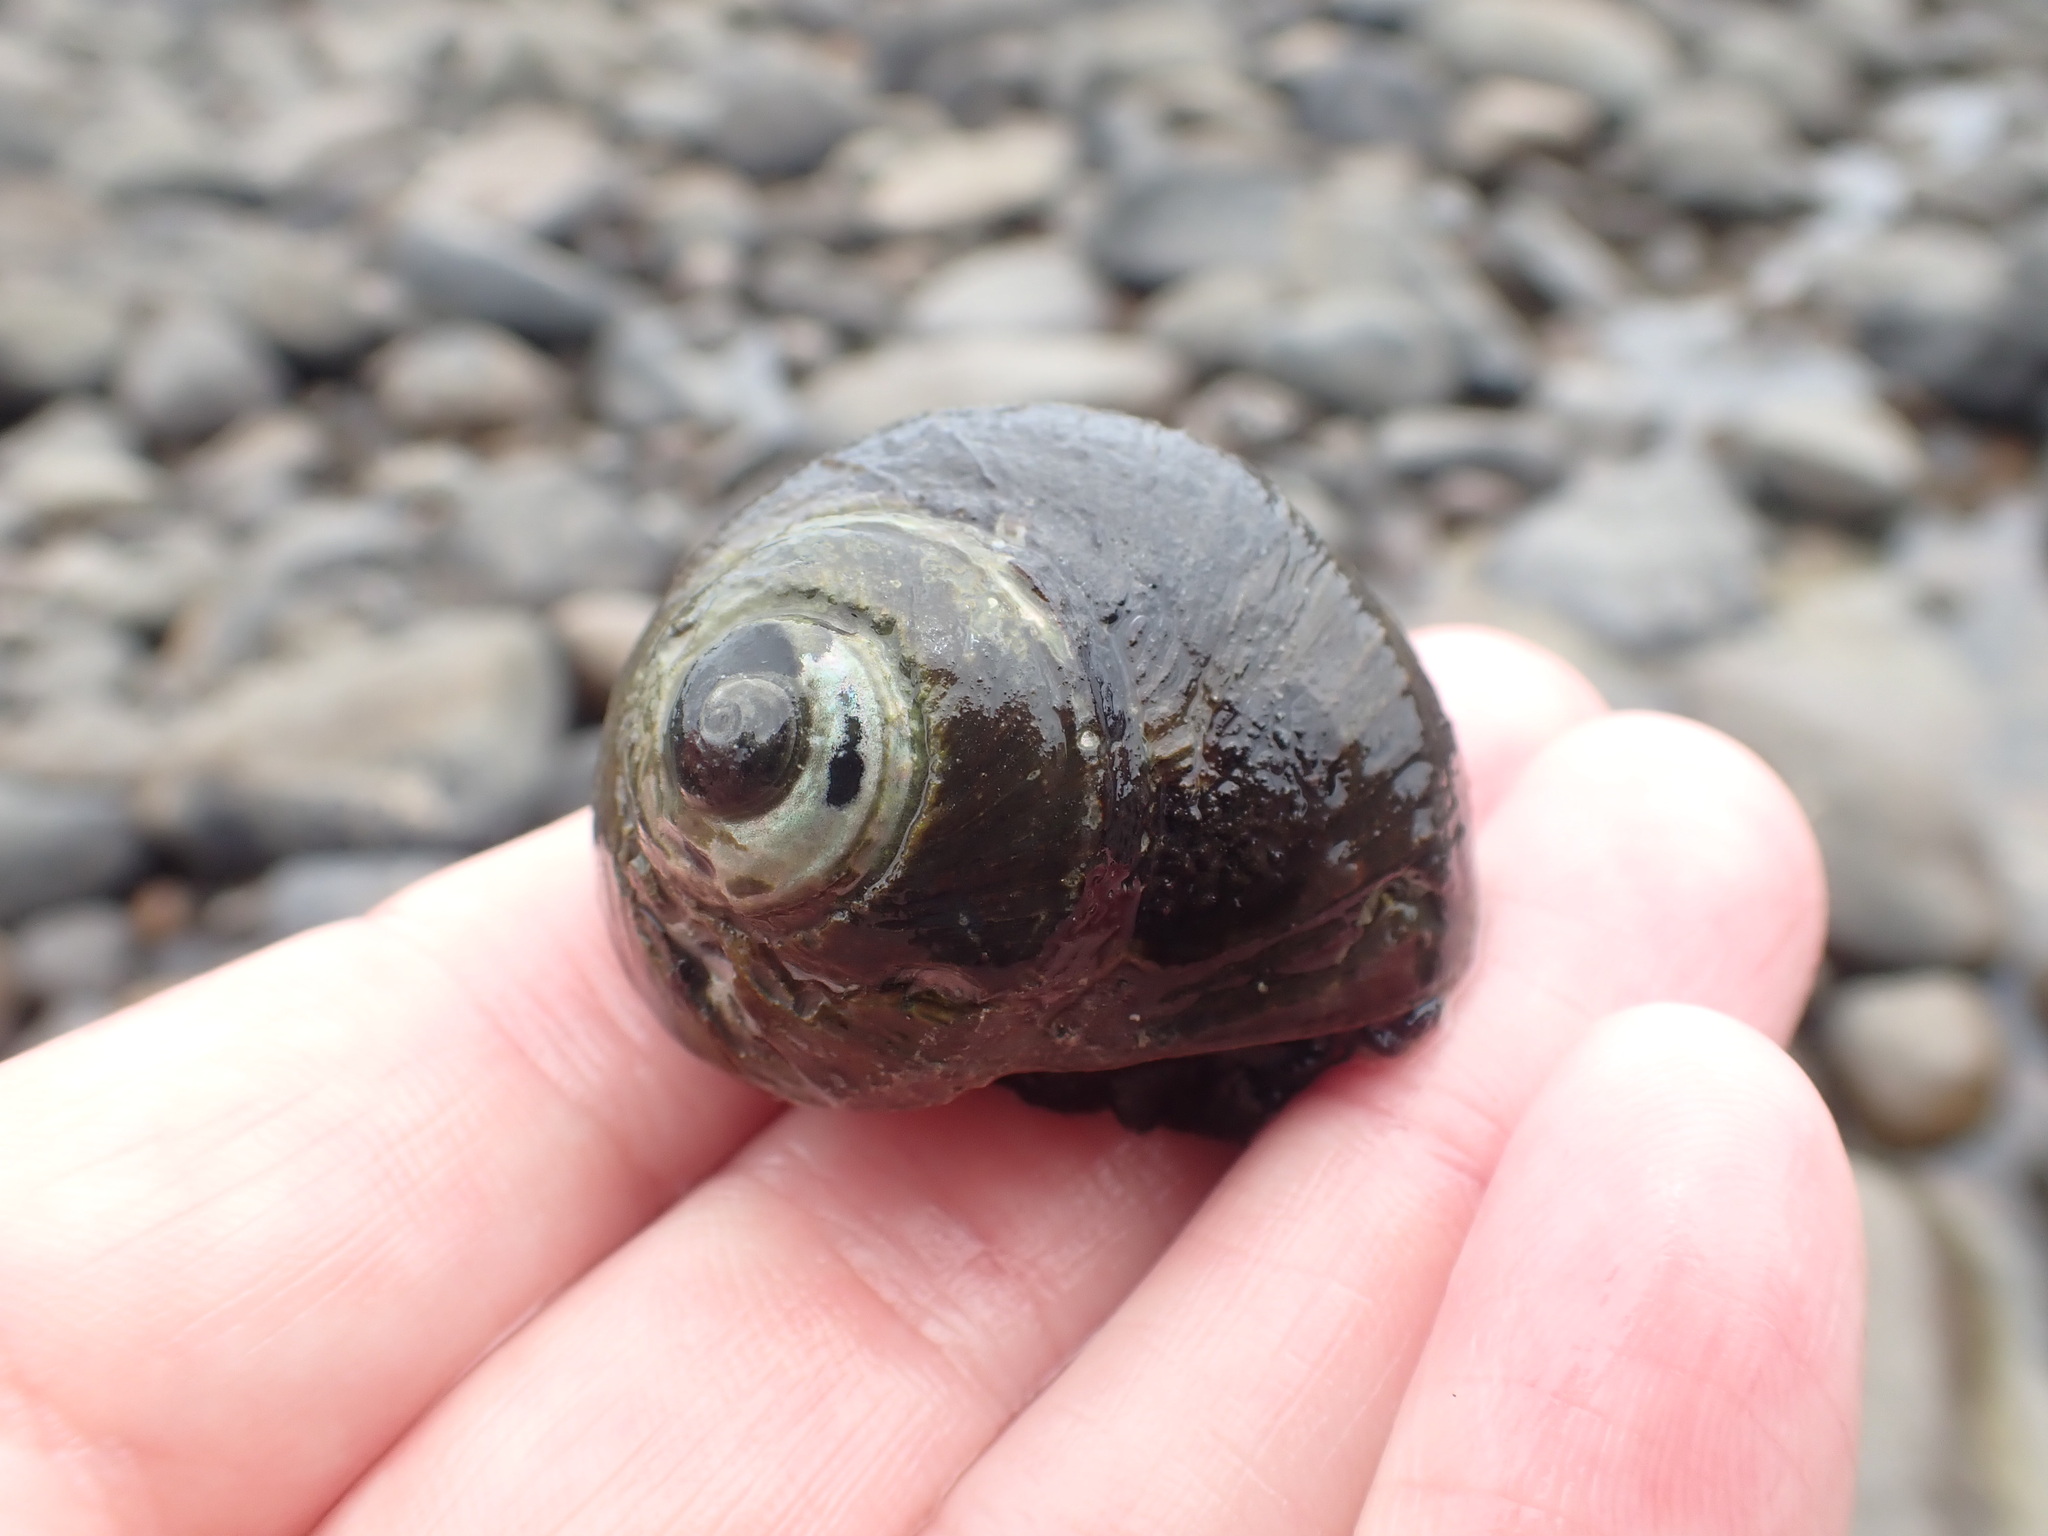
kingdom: Animalia
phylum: Mollusca
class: Gastropoda
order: Trochida
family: Turbinidae
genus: Lunella
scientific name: Lunella smaragda
